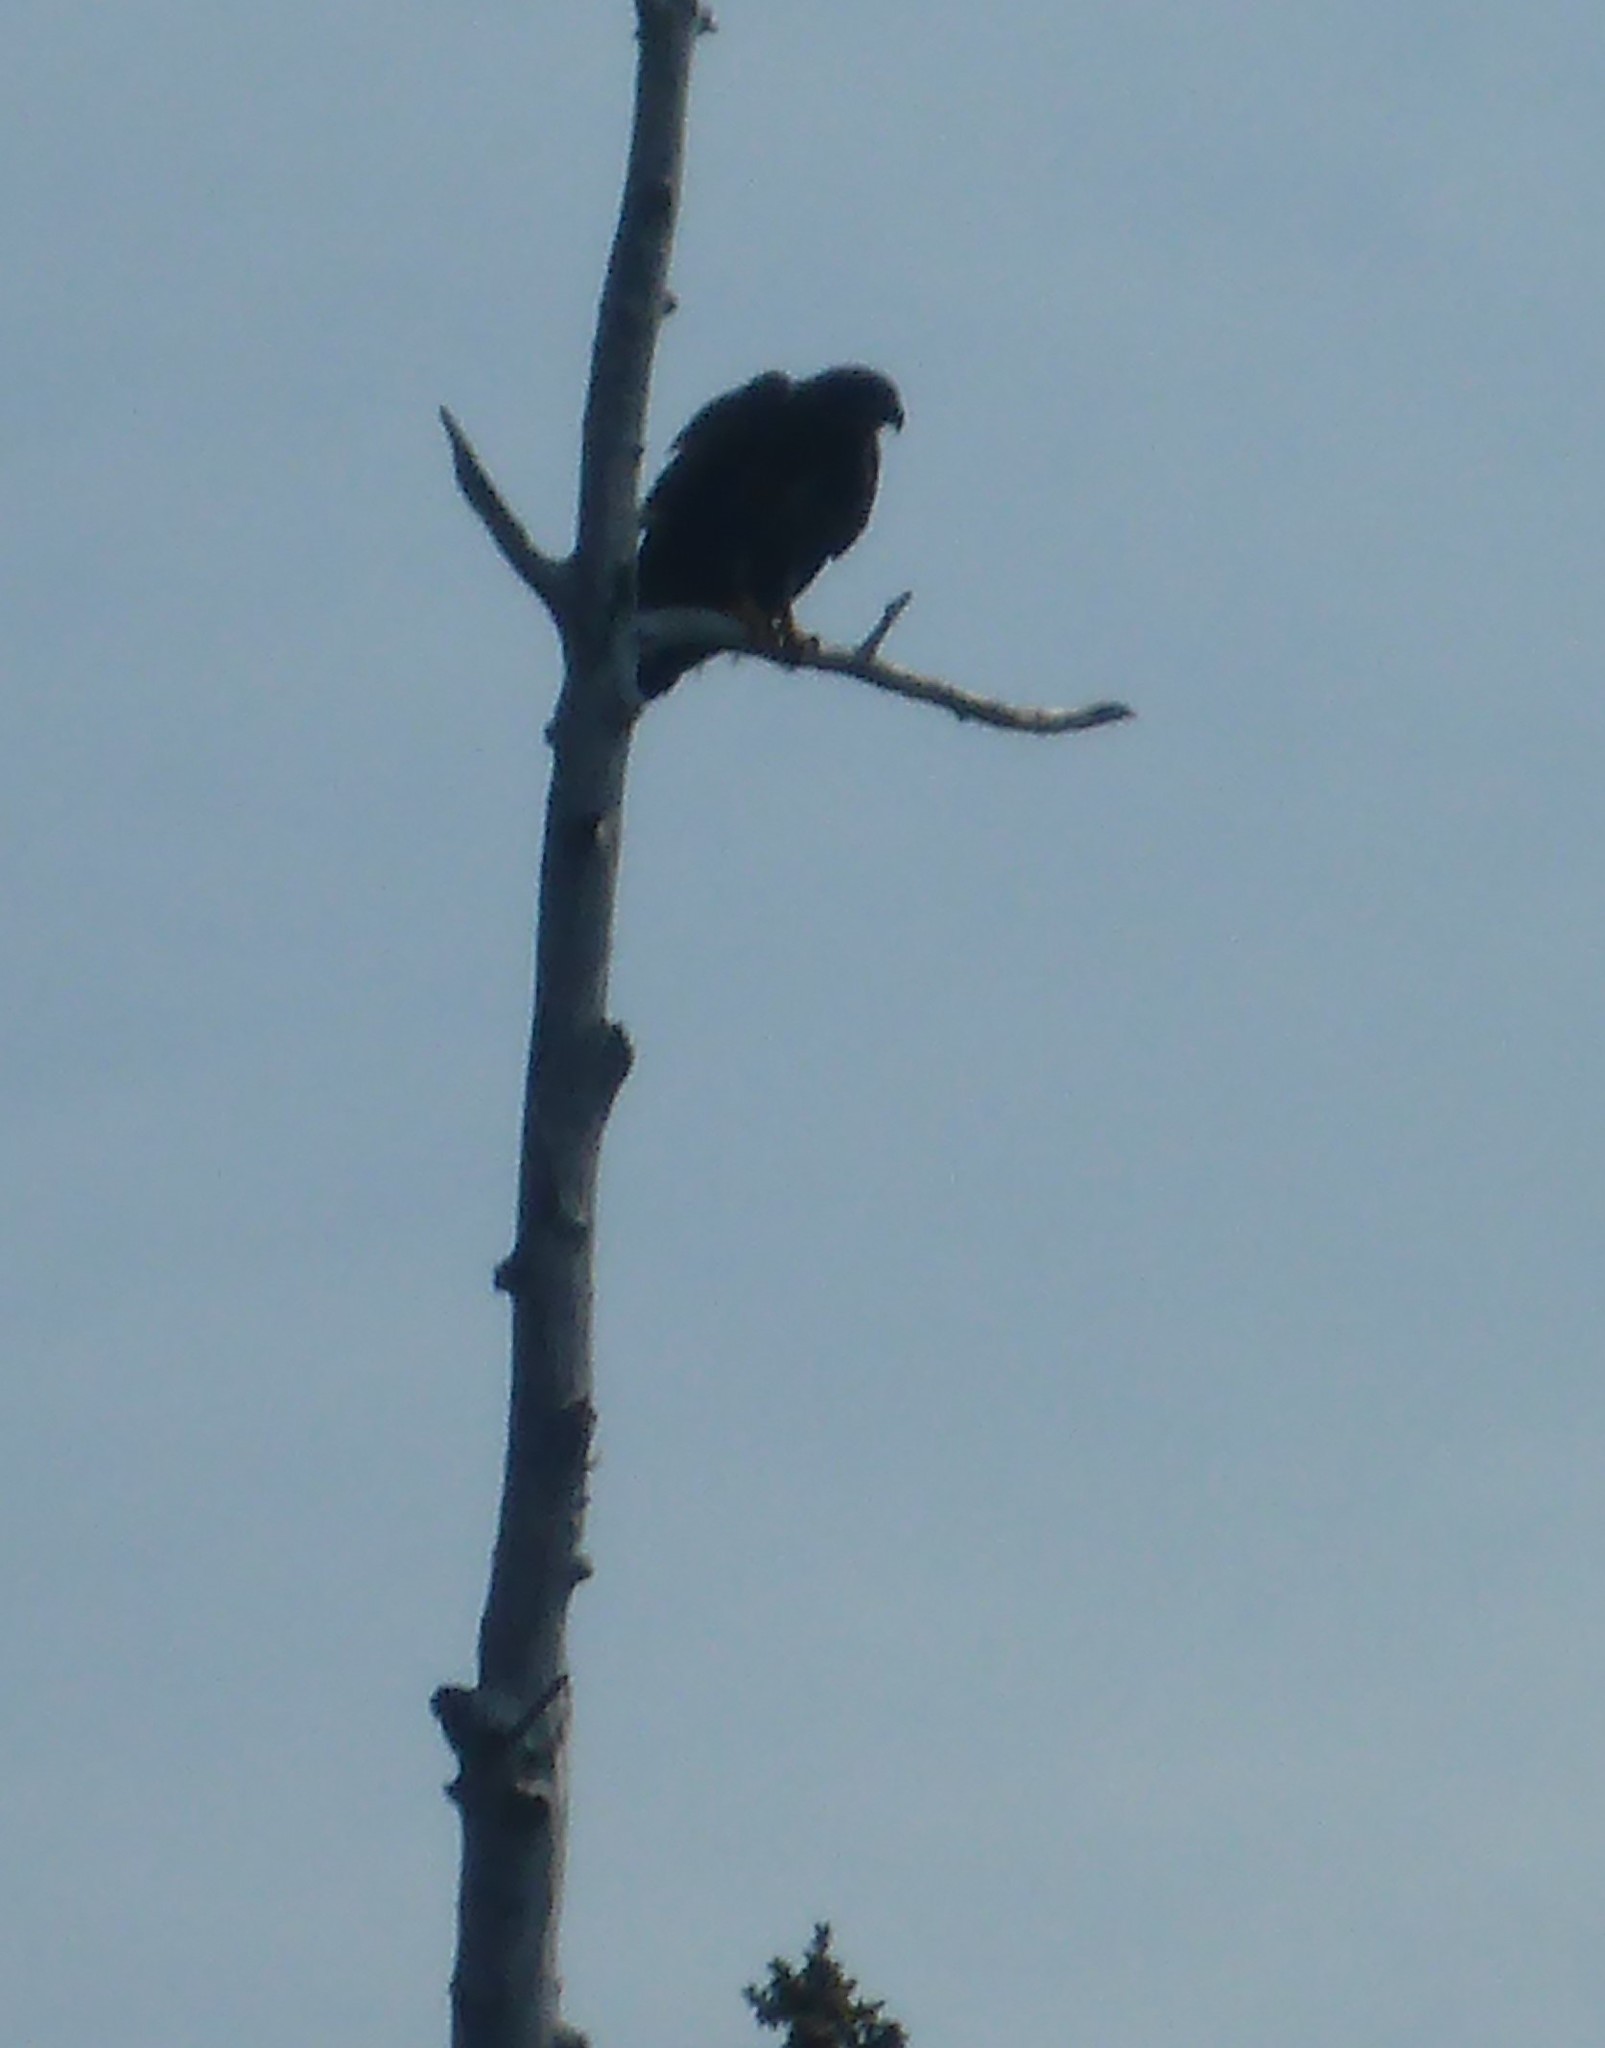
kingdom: Animalia
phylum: Chordata
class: Aves
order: Accipitriformes
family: Accipitridae
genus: Haliaeetus
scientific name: Haliaeetus leucocephalus
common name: Bald eagle
